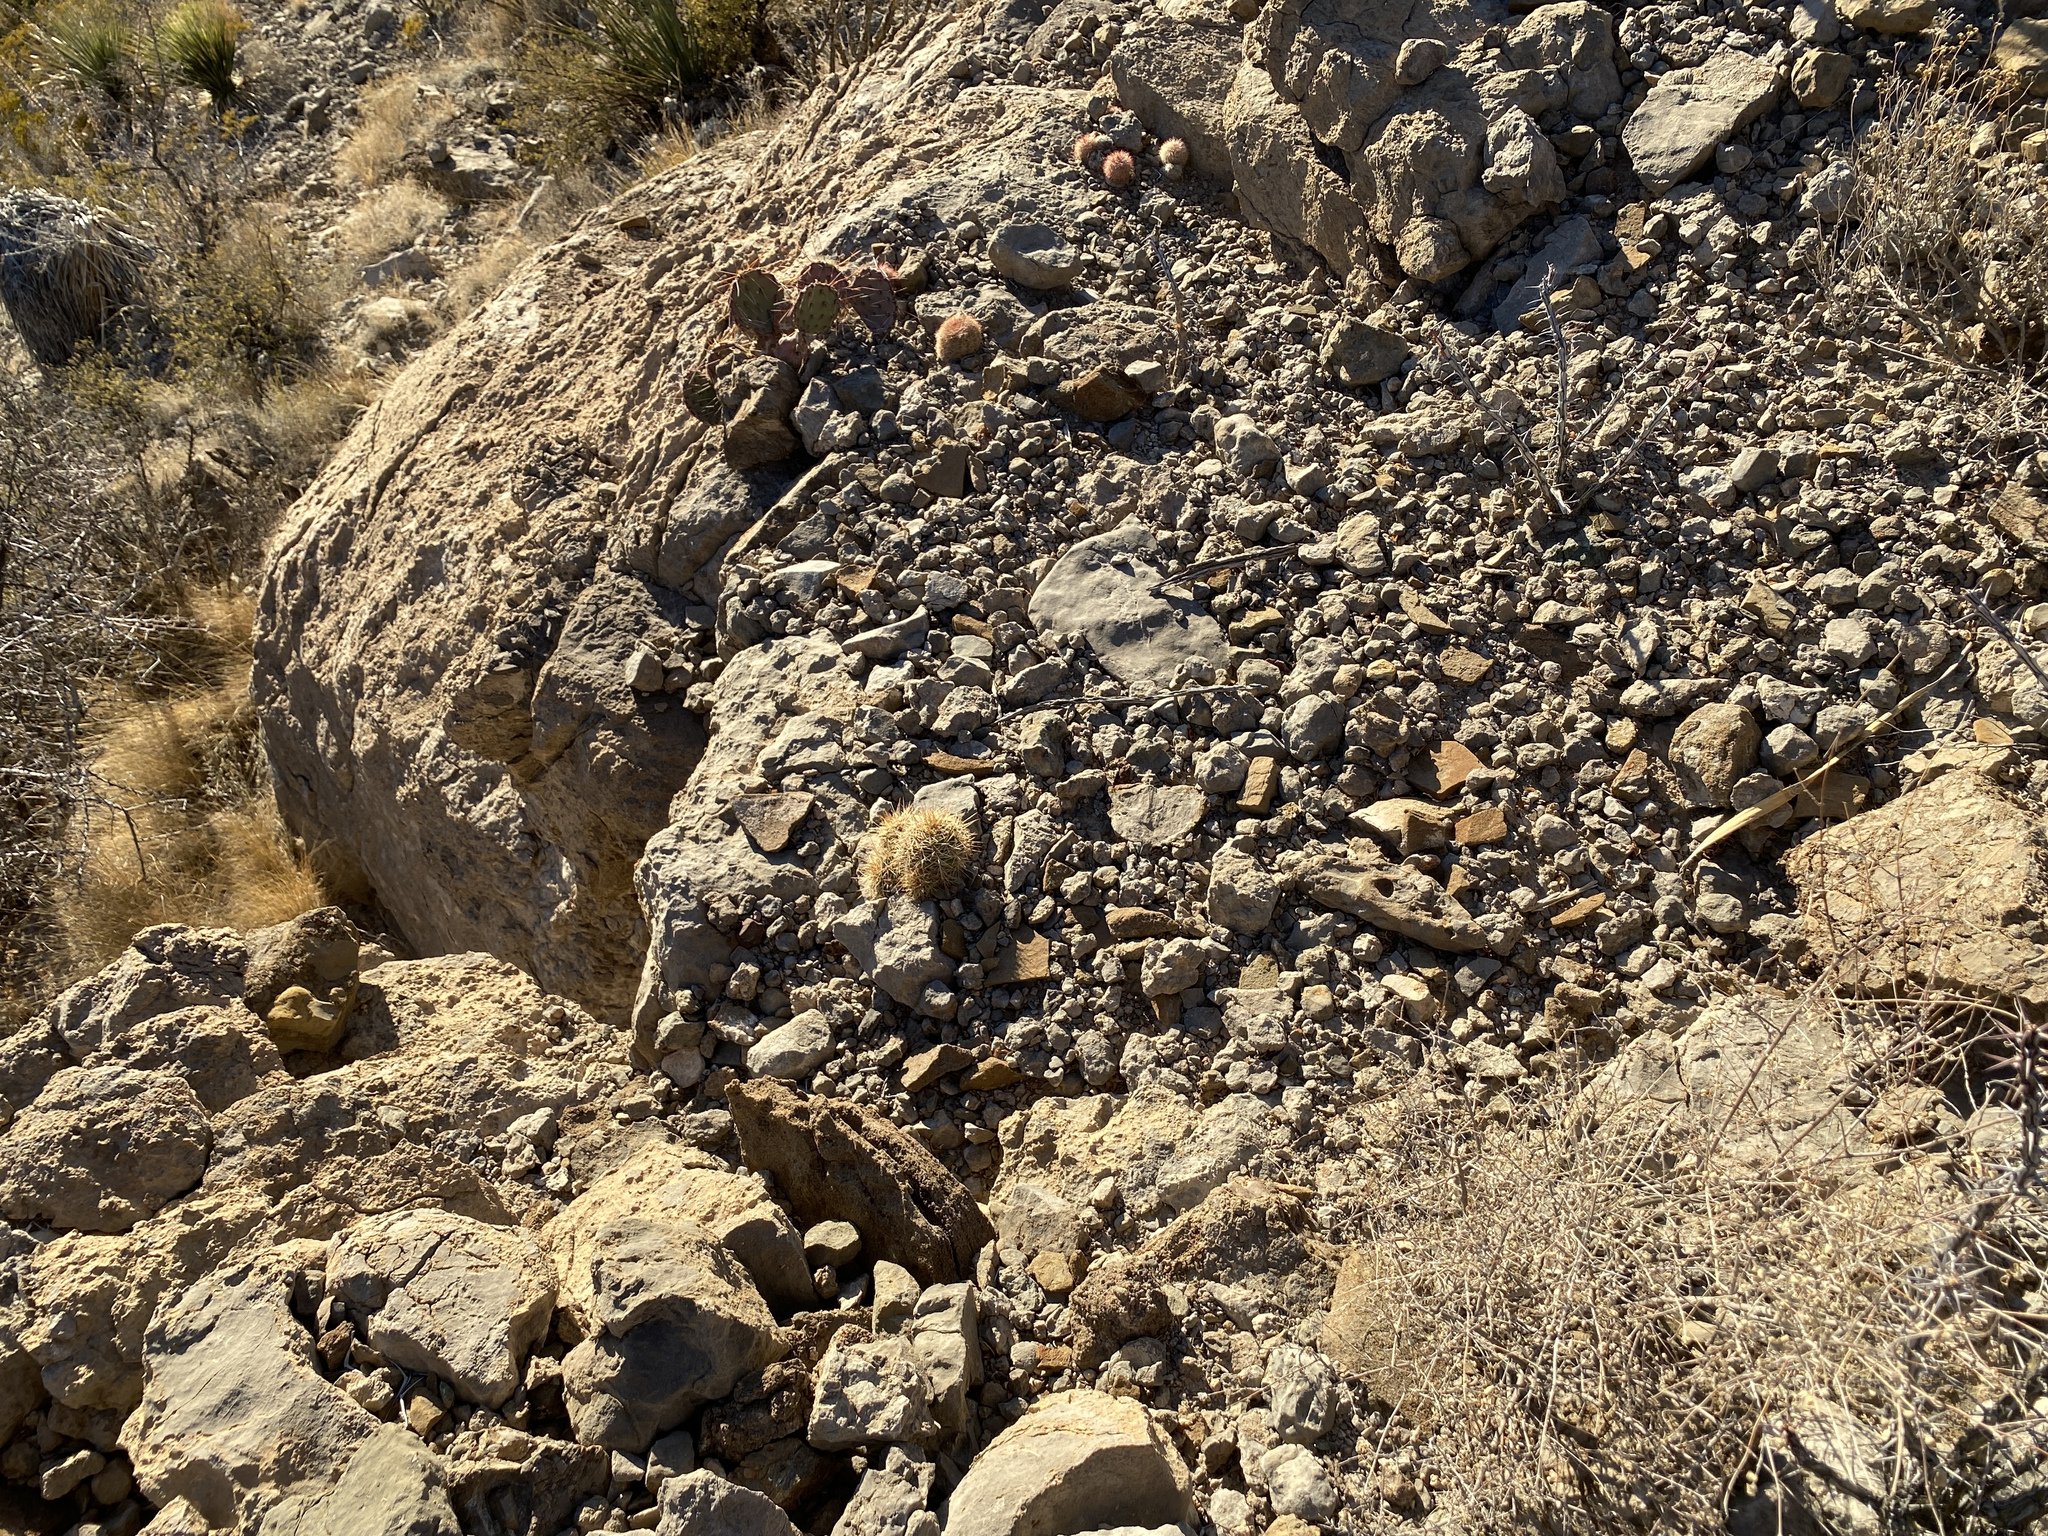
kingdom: Plantae
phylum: Tracheophyta
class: Magnoliopsida
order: Caryophyllales
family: Cactaceae
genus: Echinocereus
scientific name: Echinocereus coccineus
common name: Scarlet hedgehog cactus
